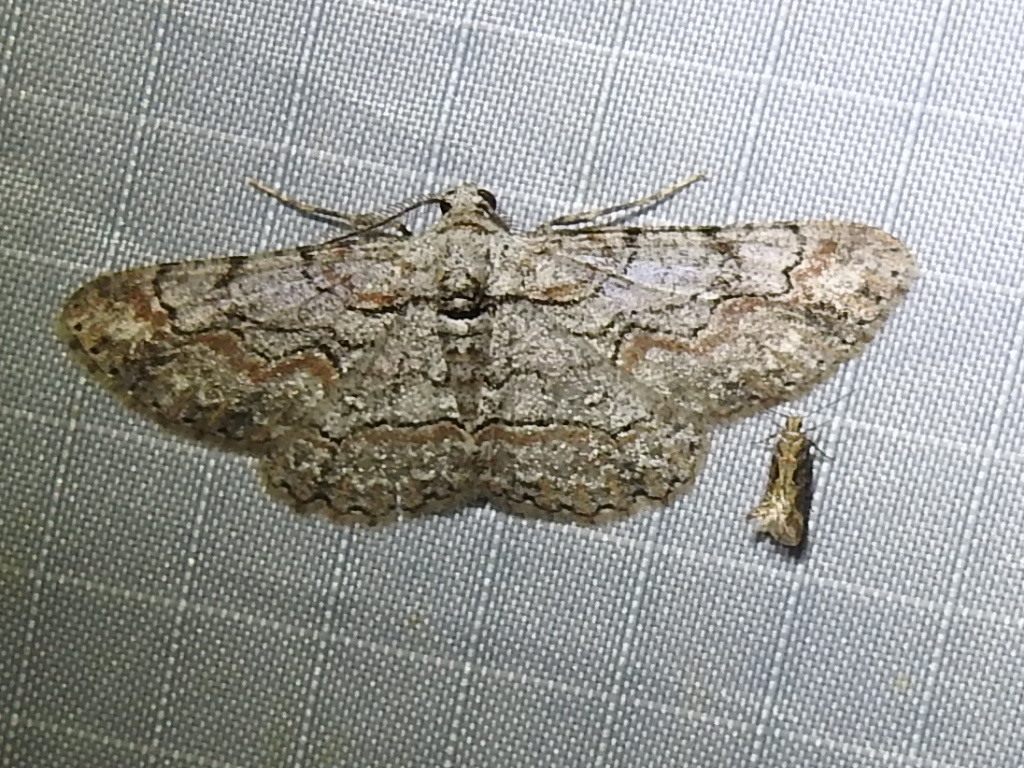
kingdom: Animalia
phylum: Arthropoda
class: Insecta
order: Lepidoptera
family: Geometridae
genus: Iridopsis
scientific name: Iridopsis defectaria
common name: Brown-shaded gray
